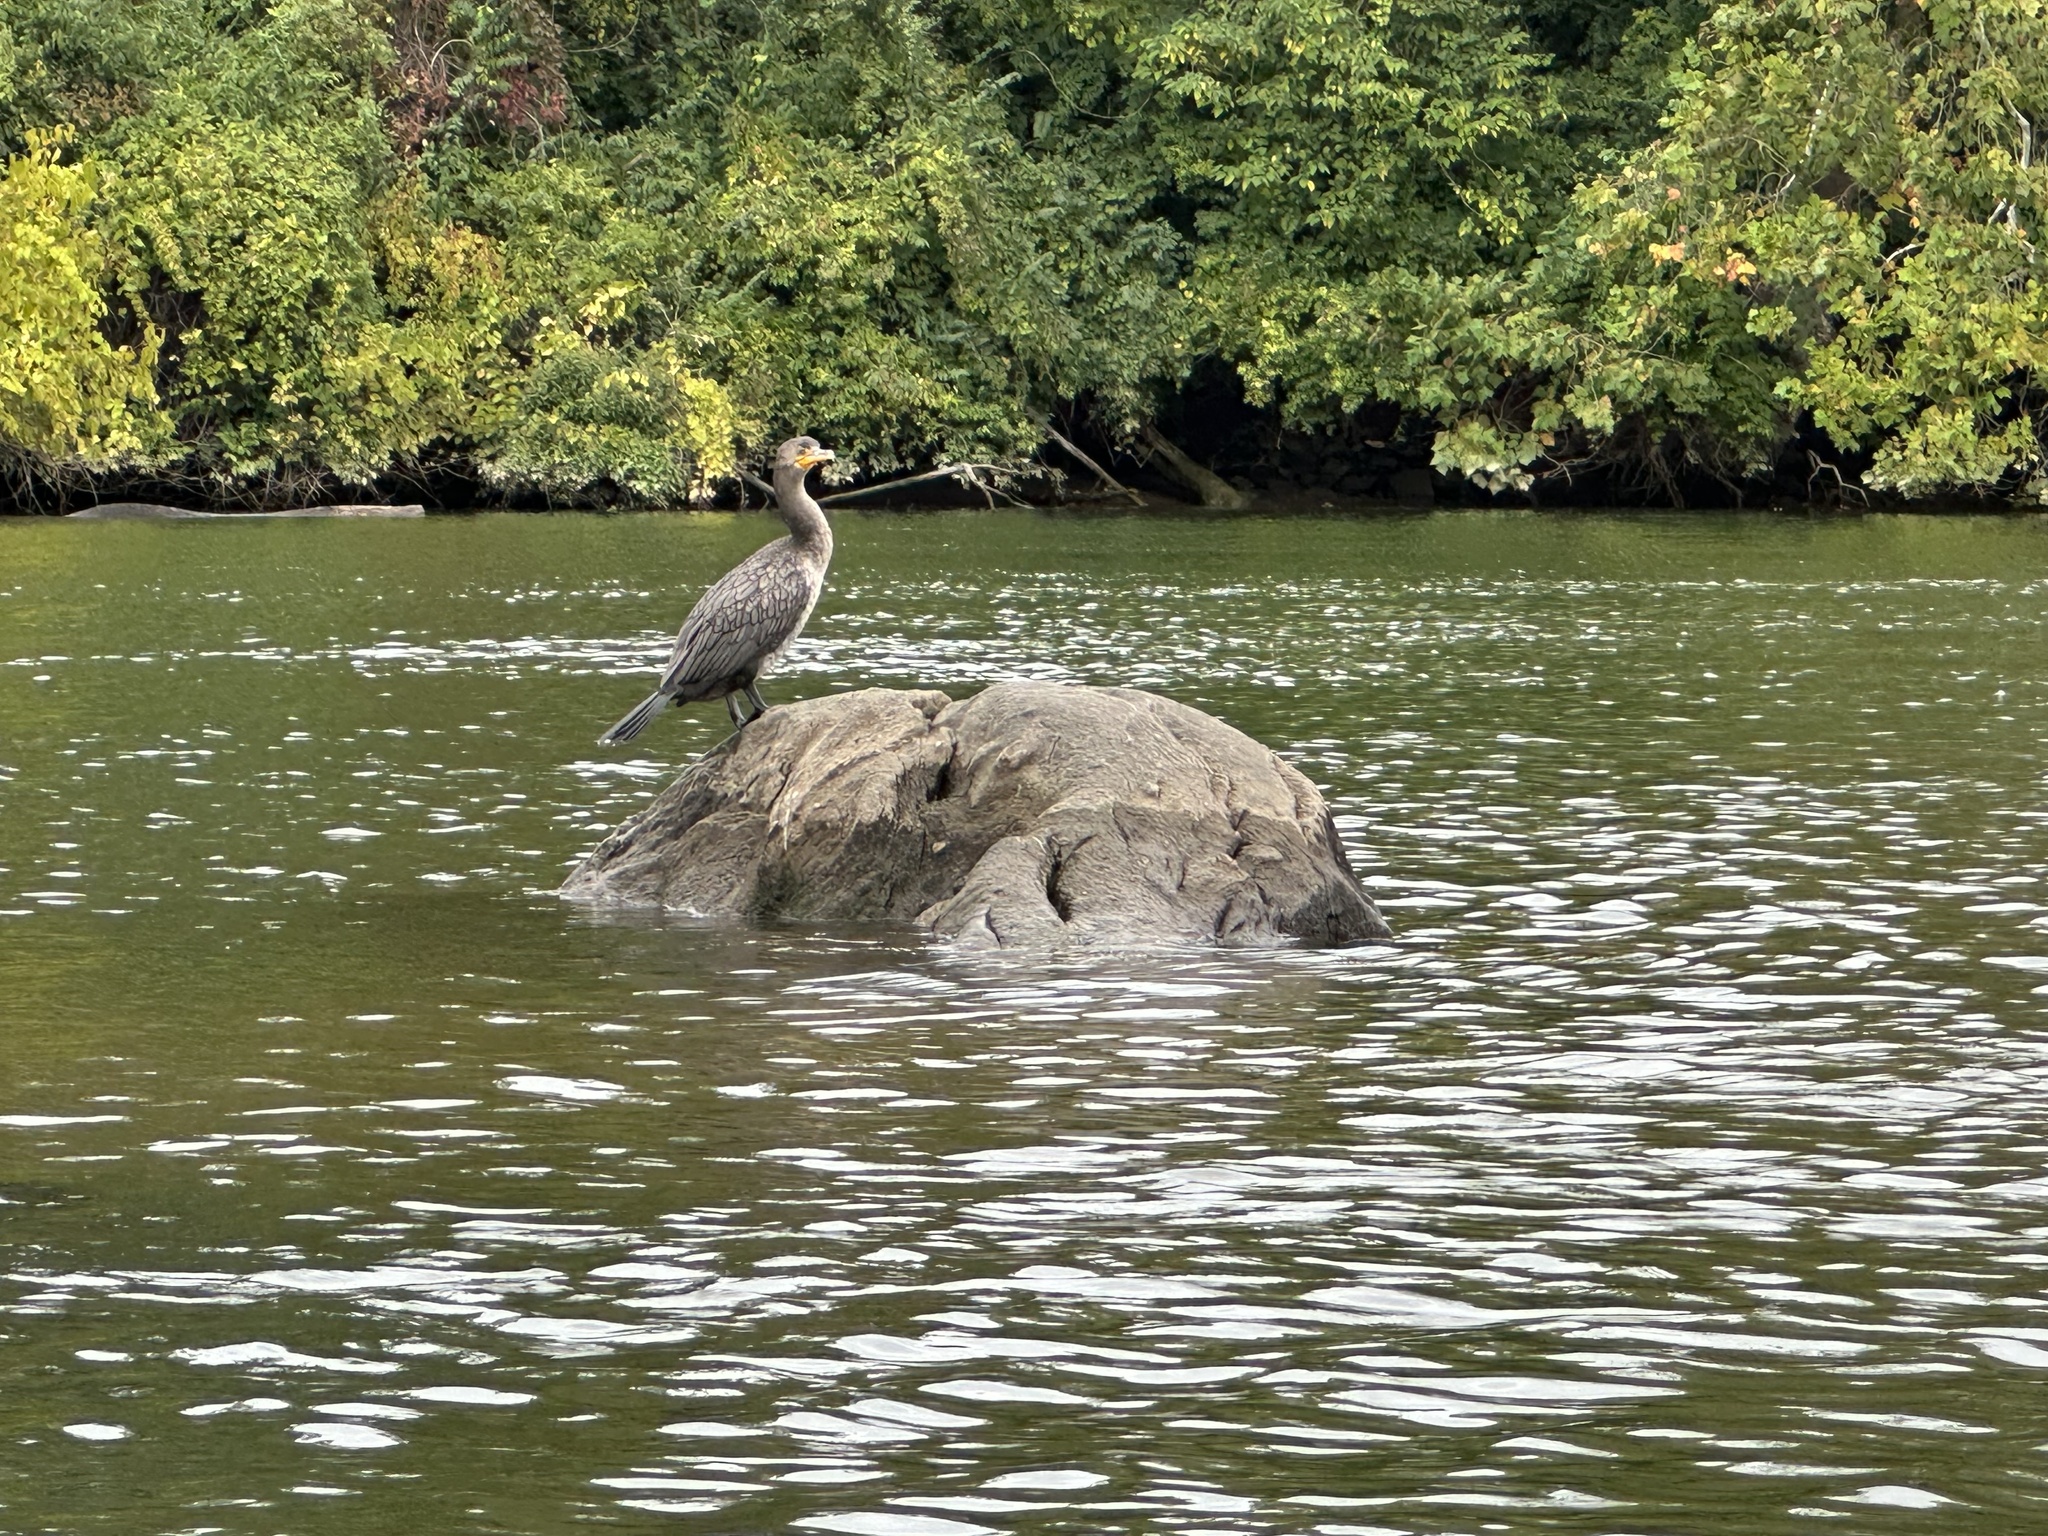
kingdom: Animalia
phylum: Chordata
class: Aves
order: Suliformes
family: Phalacrocoracidae
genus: Phalacrocorax
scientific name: Phalacrocorax auritus
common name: Double-crested cormorant
